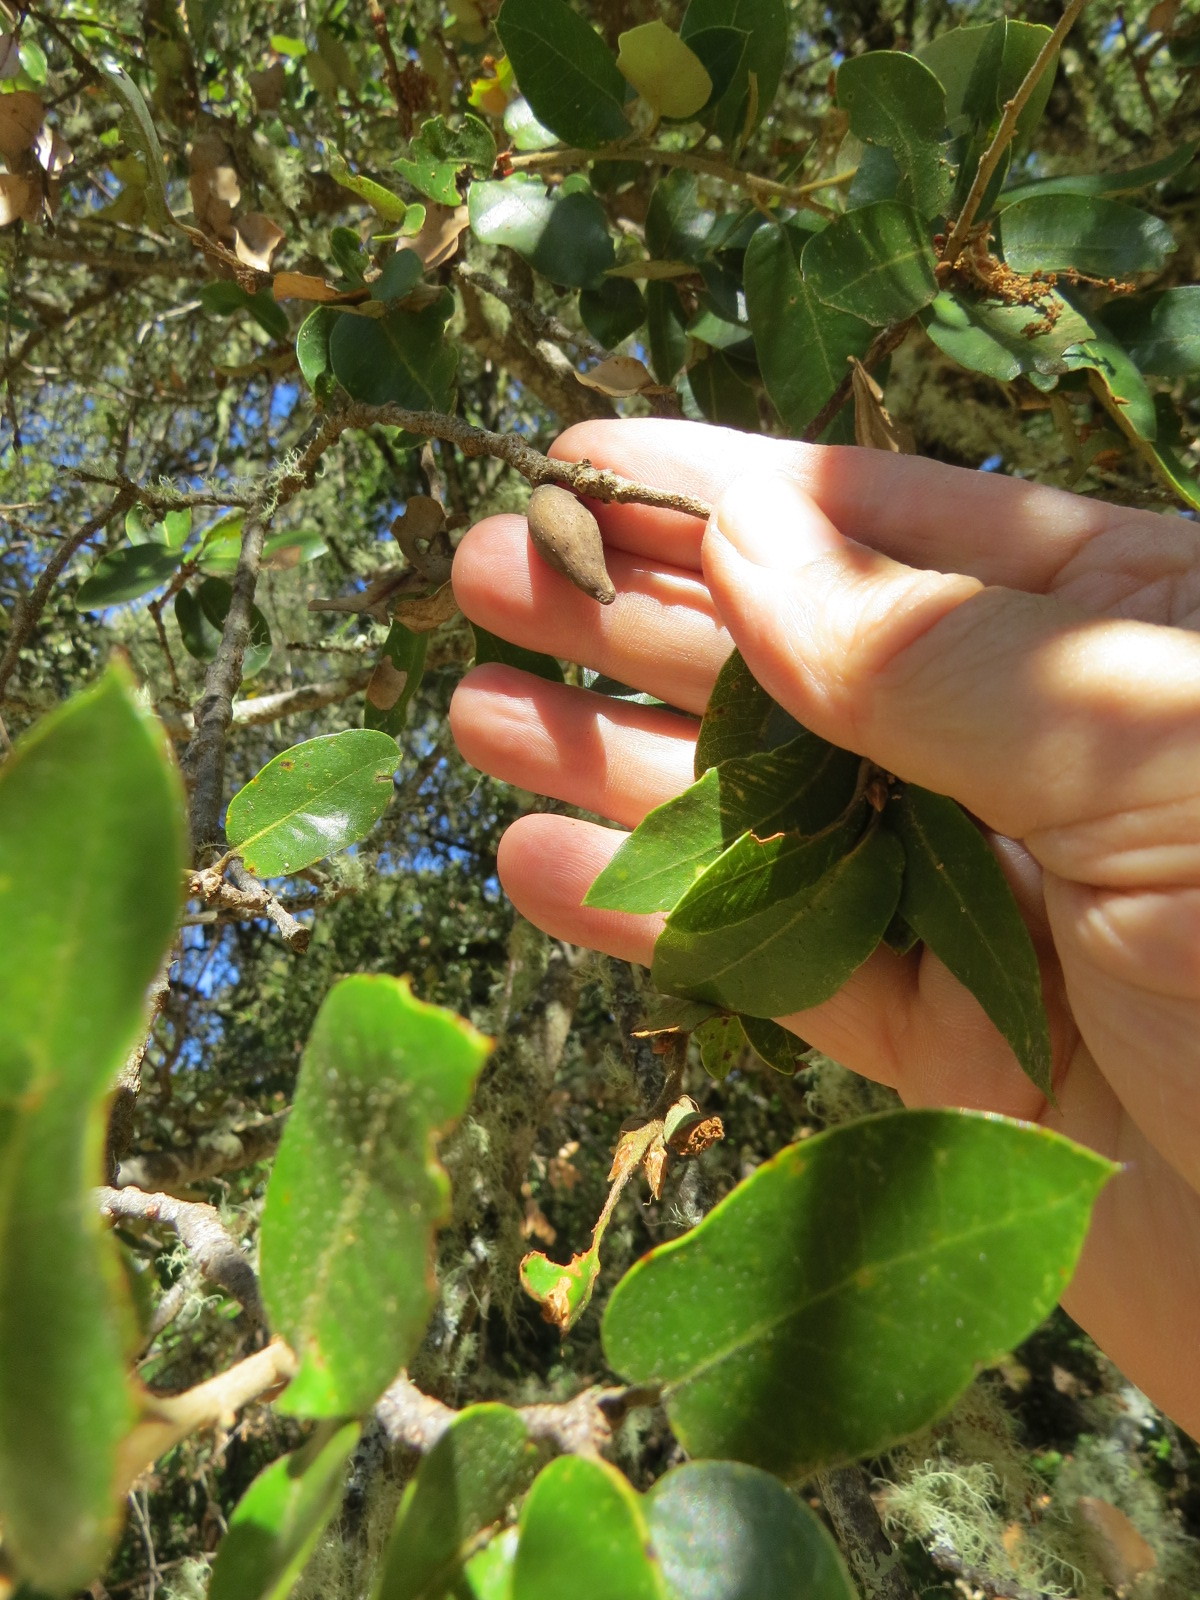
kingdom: Animalia
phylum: Arthropoda
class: Insecta
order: Hymenoptera
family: Cynipidae
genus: Heteroecus
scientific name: Heteroecus pacificus
